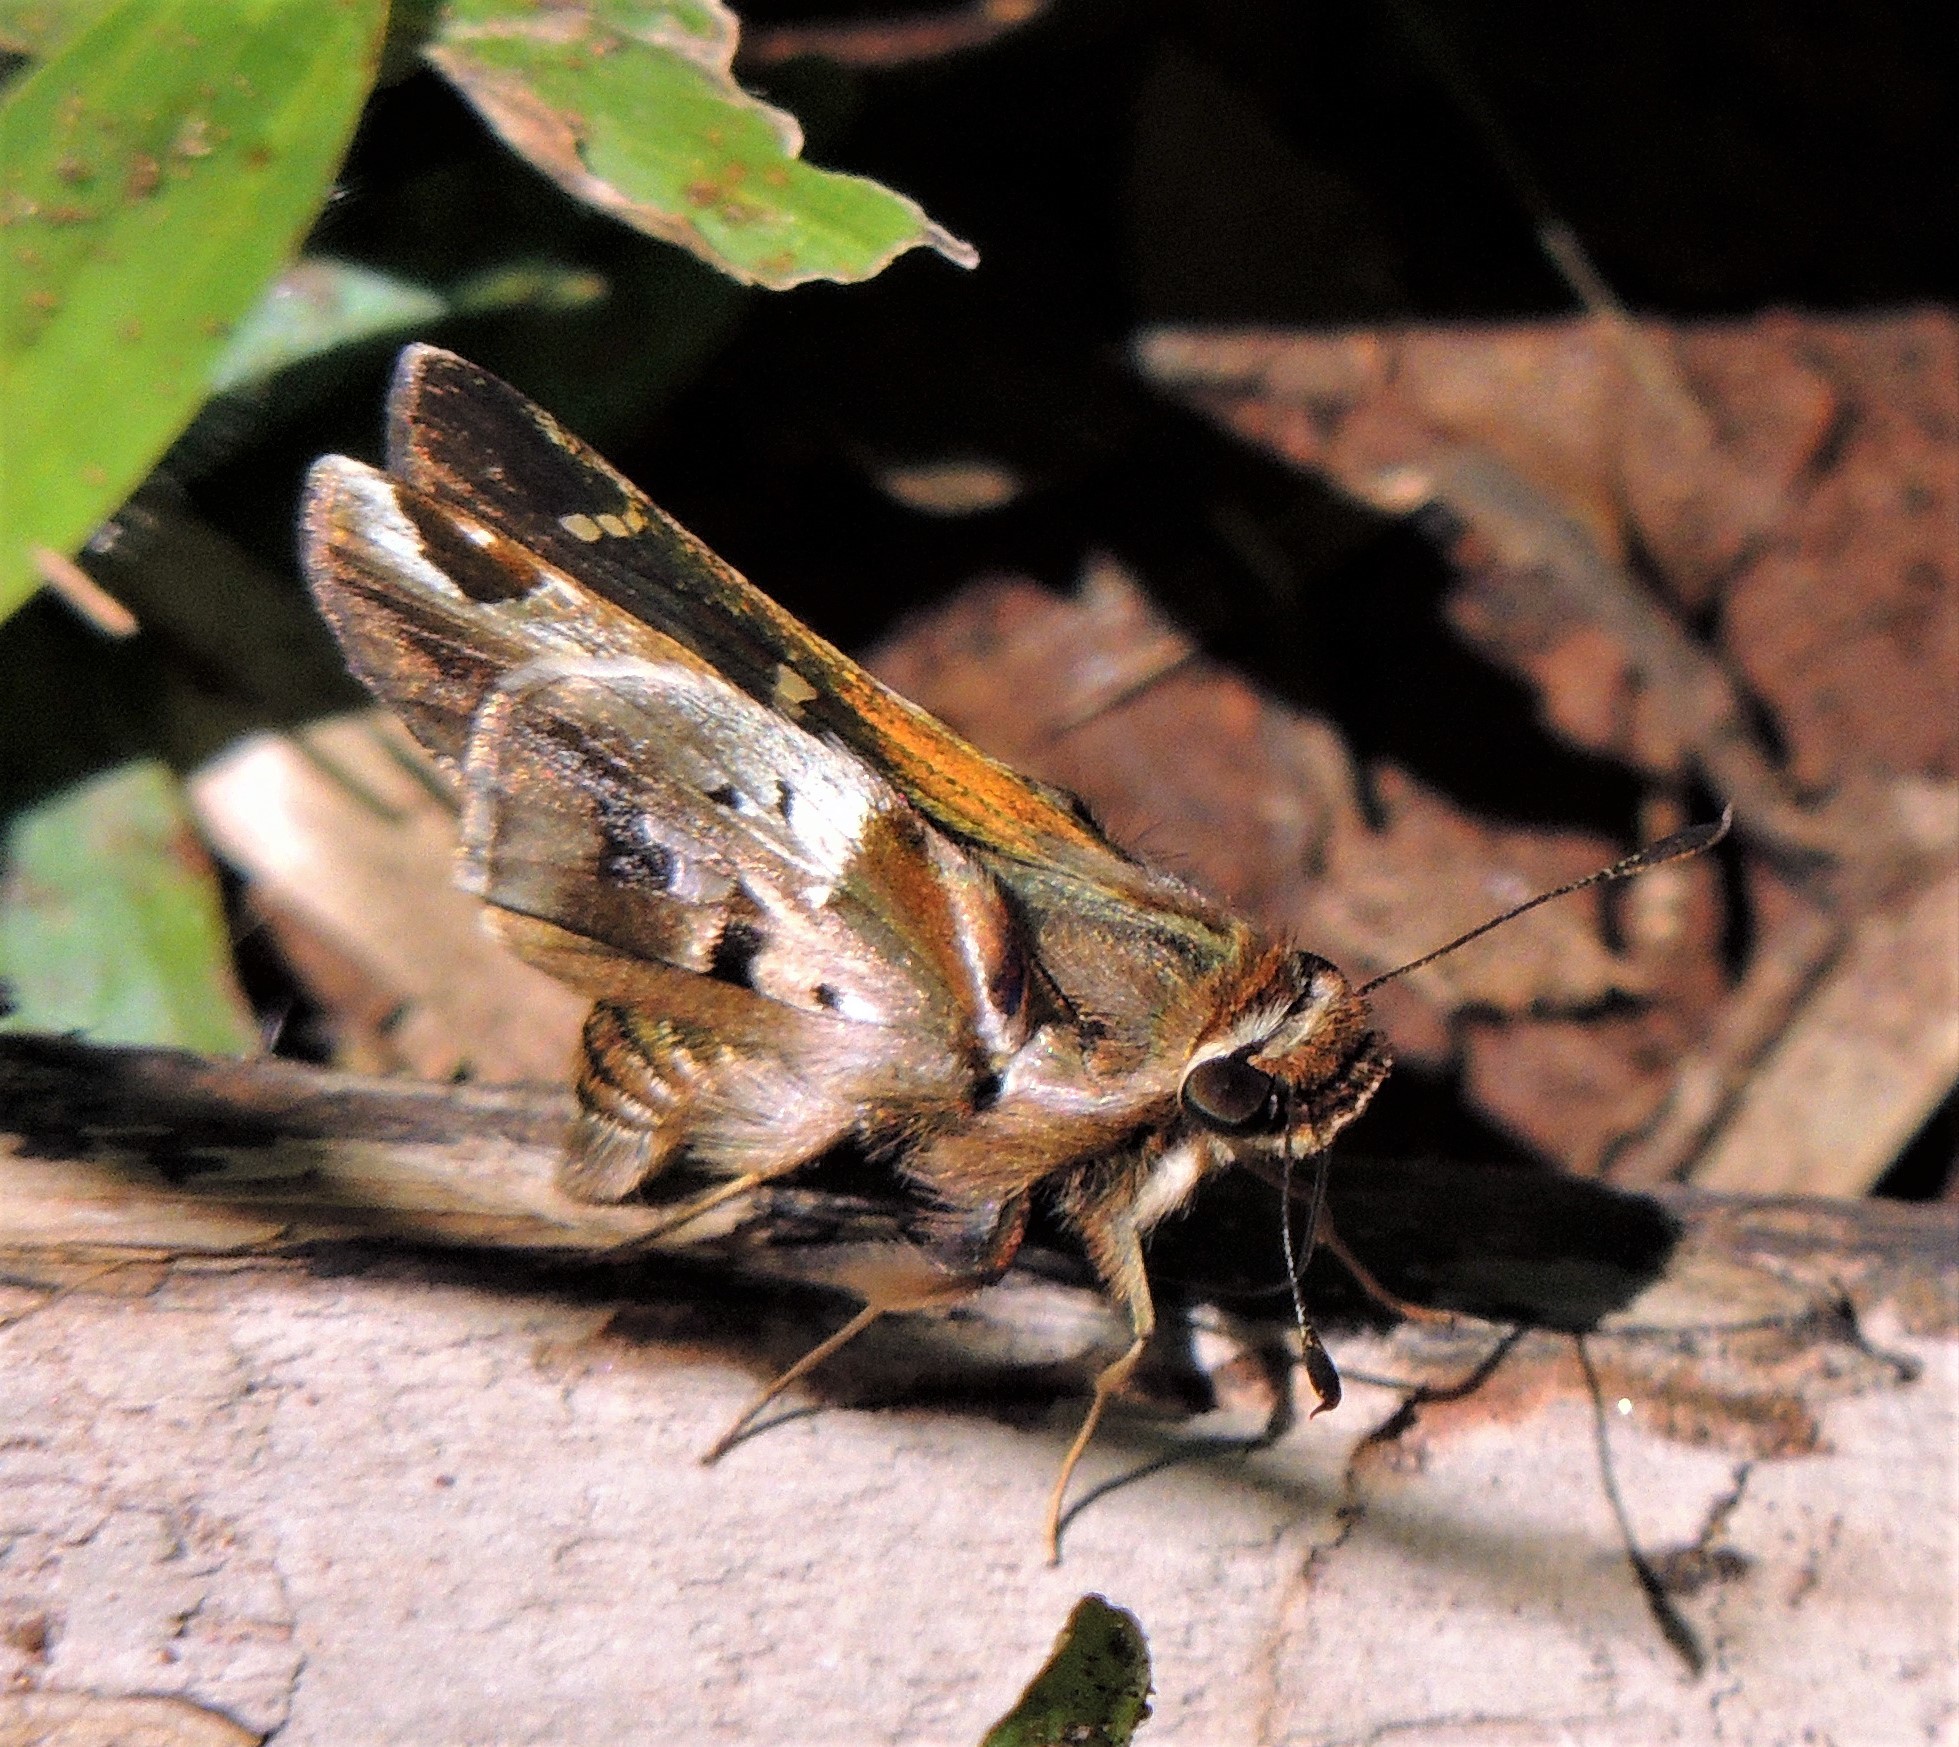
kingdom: Animalia
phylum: Arthropoda
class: Insecta
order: Lepidoptera
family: Hesperiidae
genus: Thespieus
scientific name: Thespieus ethemides
